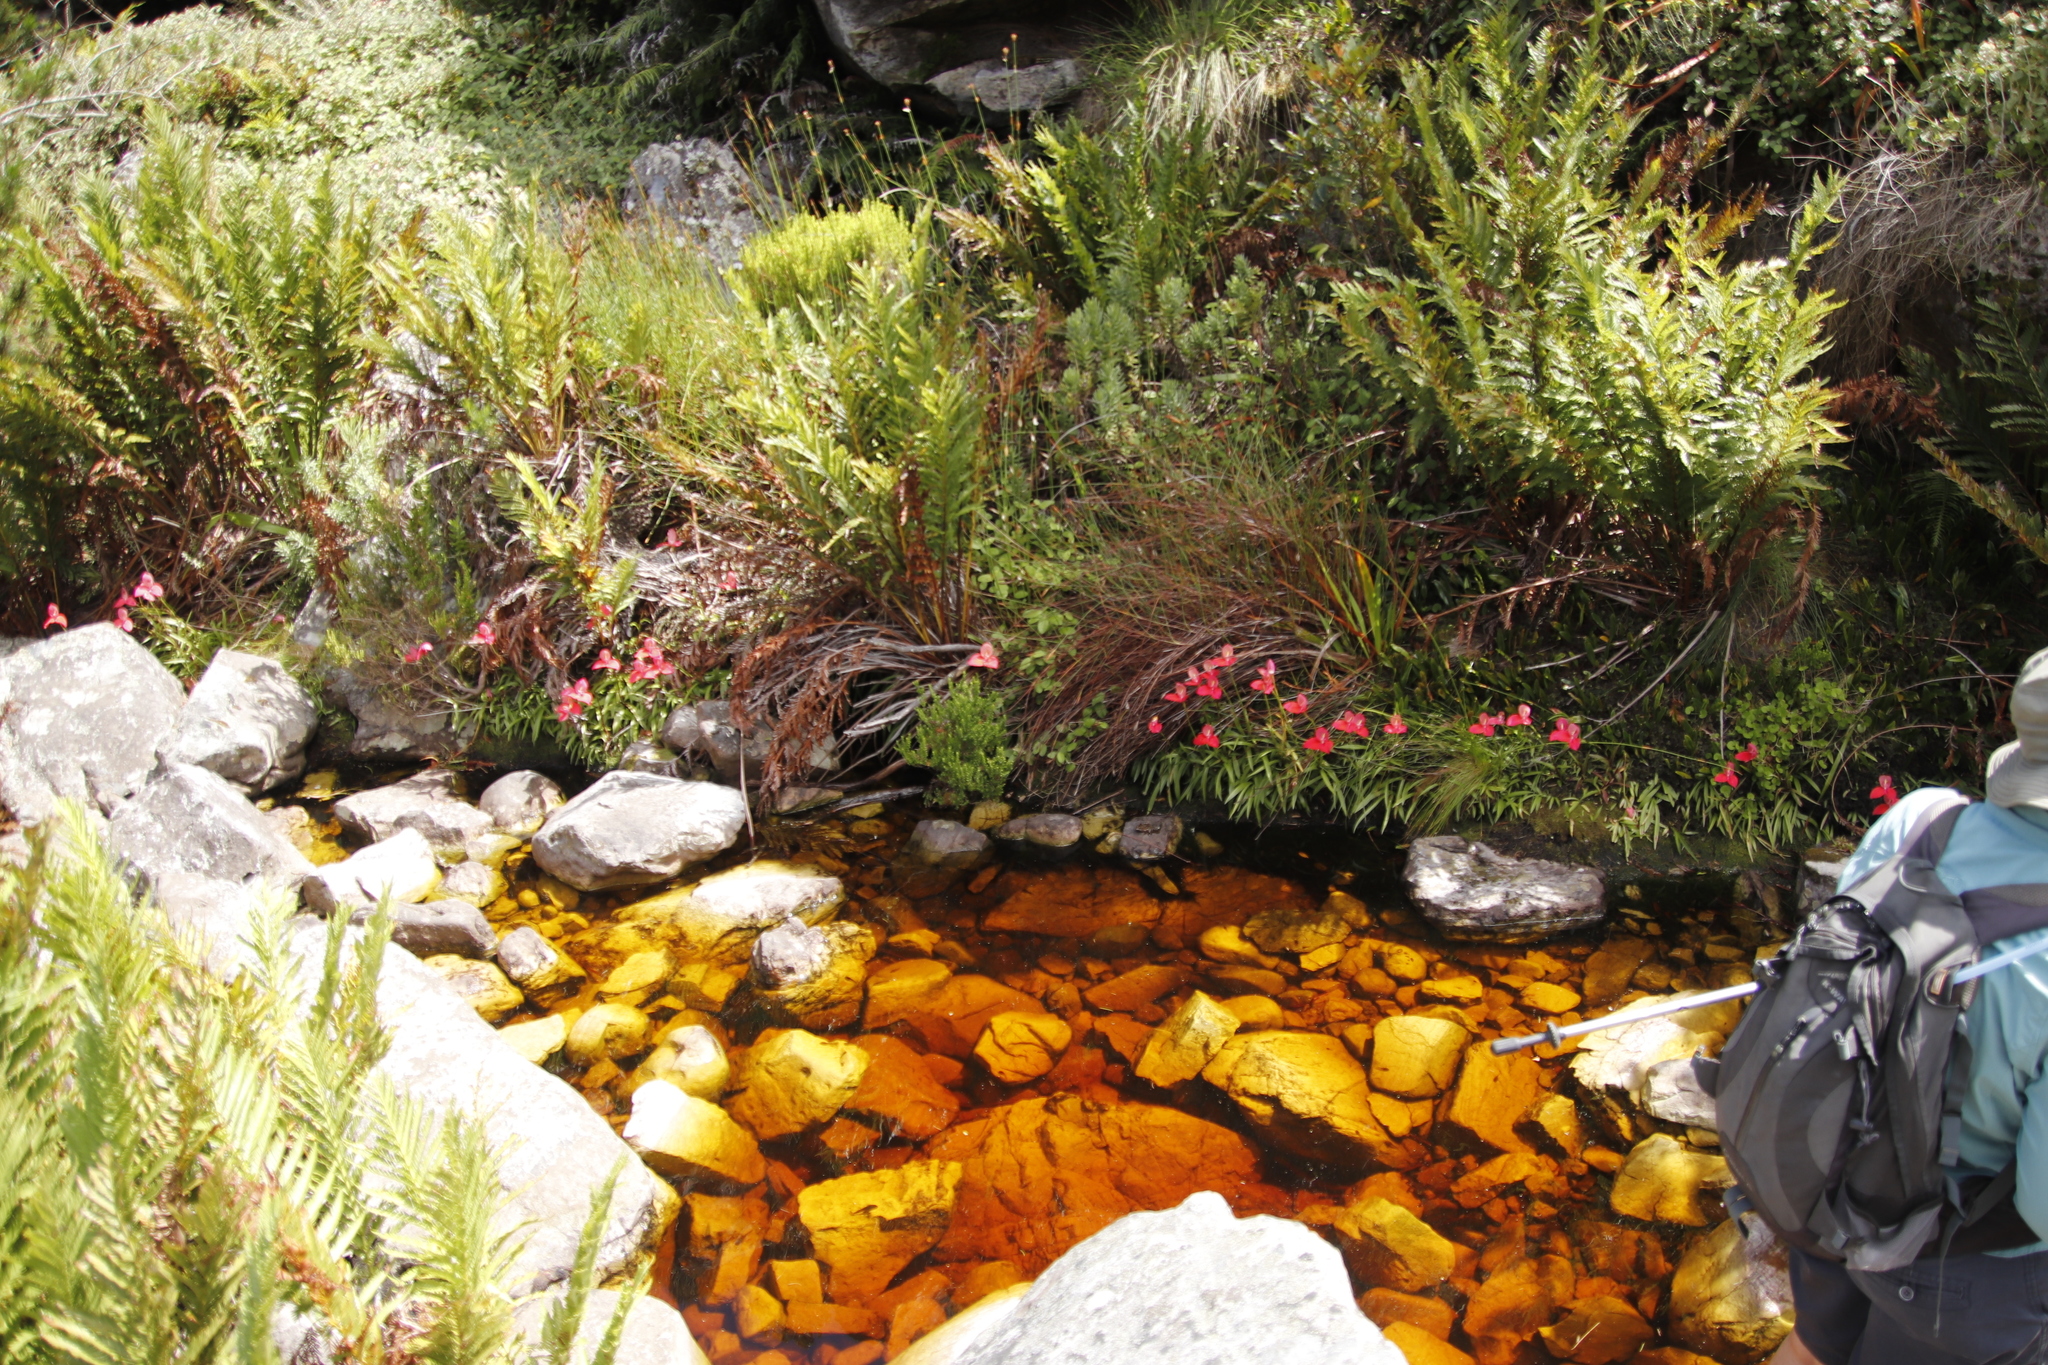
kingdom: Plantae
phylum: Tracheophyta
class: Liliopsida
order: Asparagales
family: Orchidaceae
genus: Disa
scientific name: Disa uniflora
